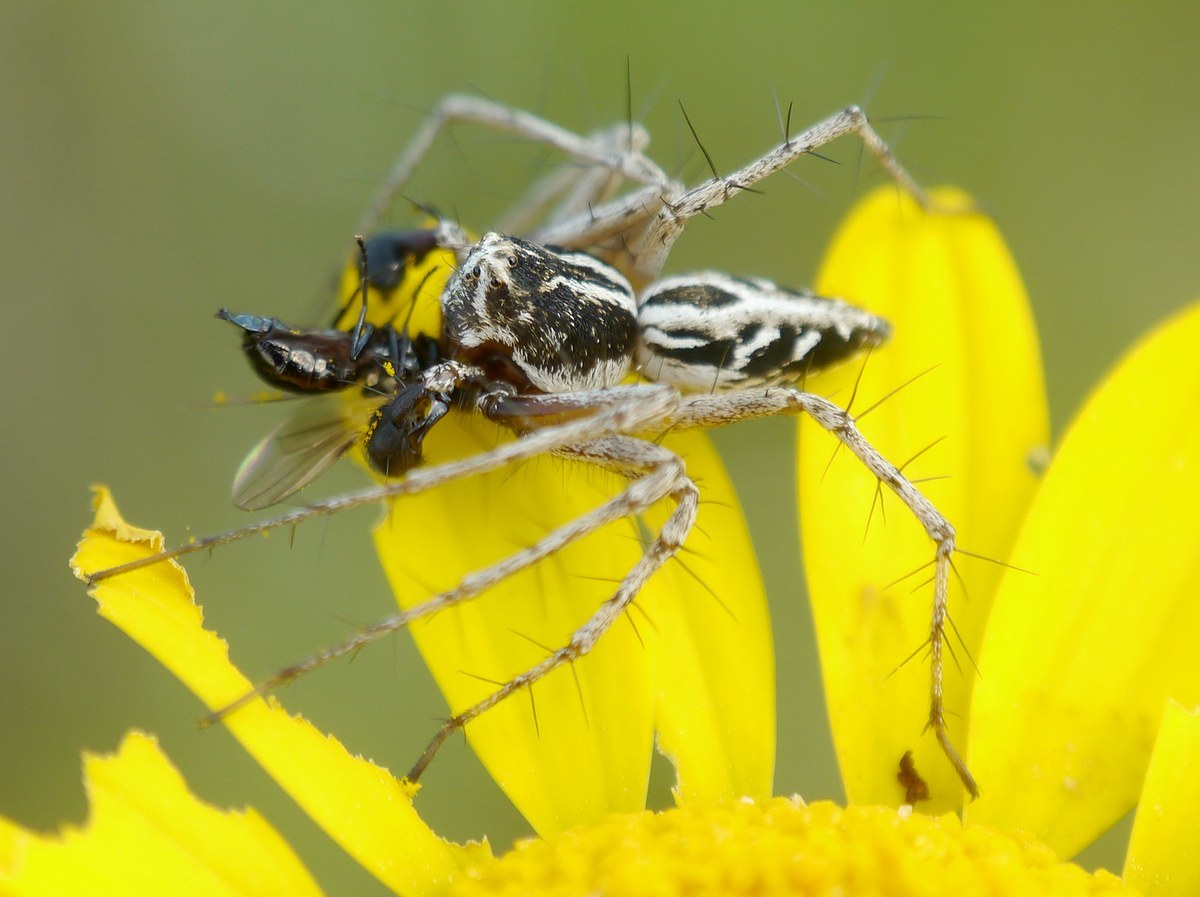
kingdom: Animalia
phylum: Arthropoda
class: Arachnida
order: Araneae
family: Oxyopidae
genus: Oxyopes
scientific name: Oxyopes heterophthalmus
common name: Lynx spider
